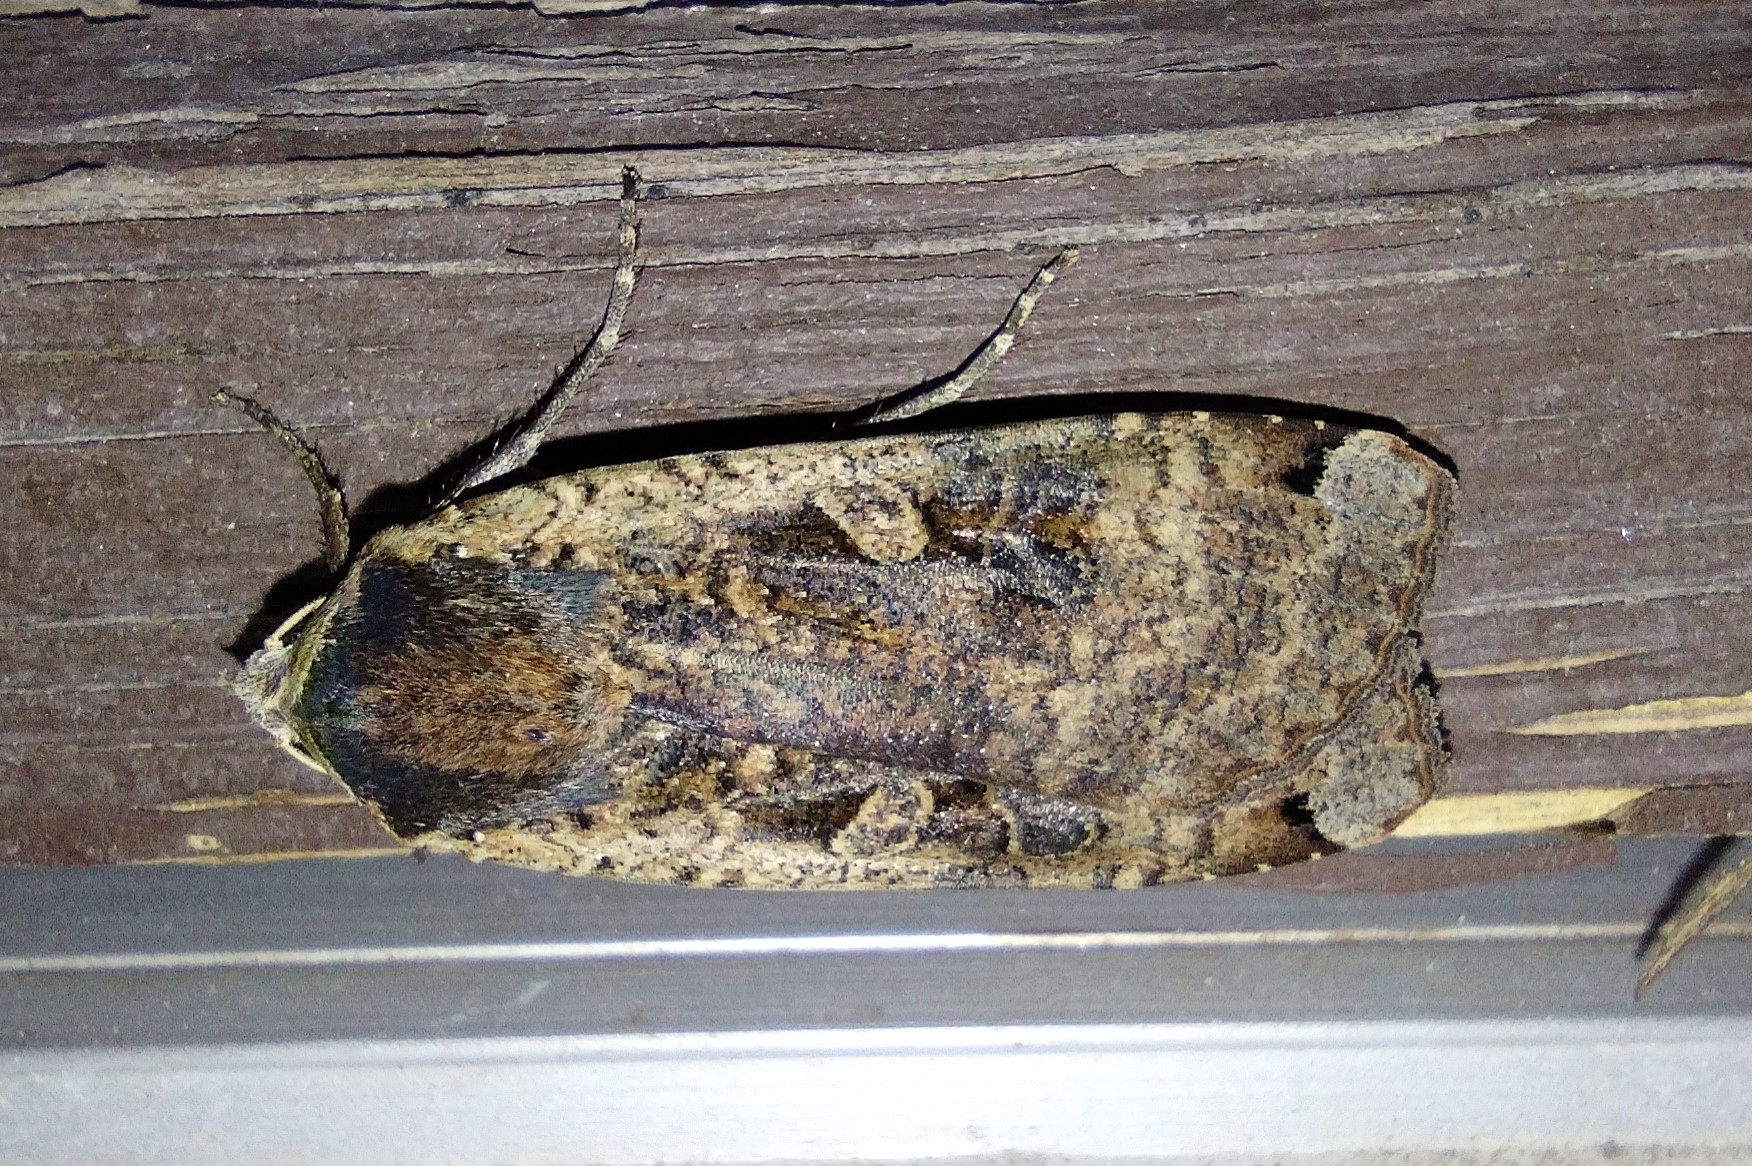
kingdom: Animalia
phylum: Arthropoda
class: Insecta
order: Lepidoptera
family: Noctuidae
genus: Noctua
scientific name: Noctua pronuba
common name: Large yellow underwing
